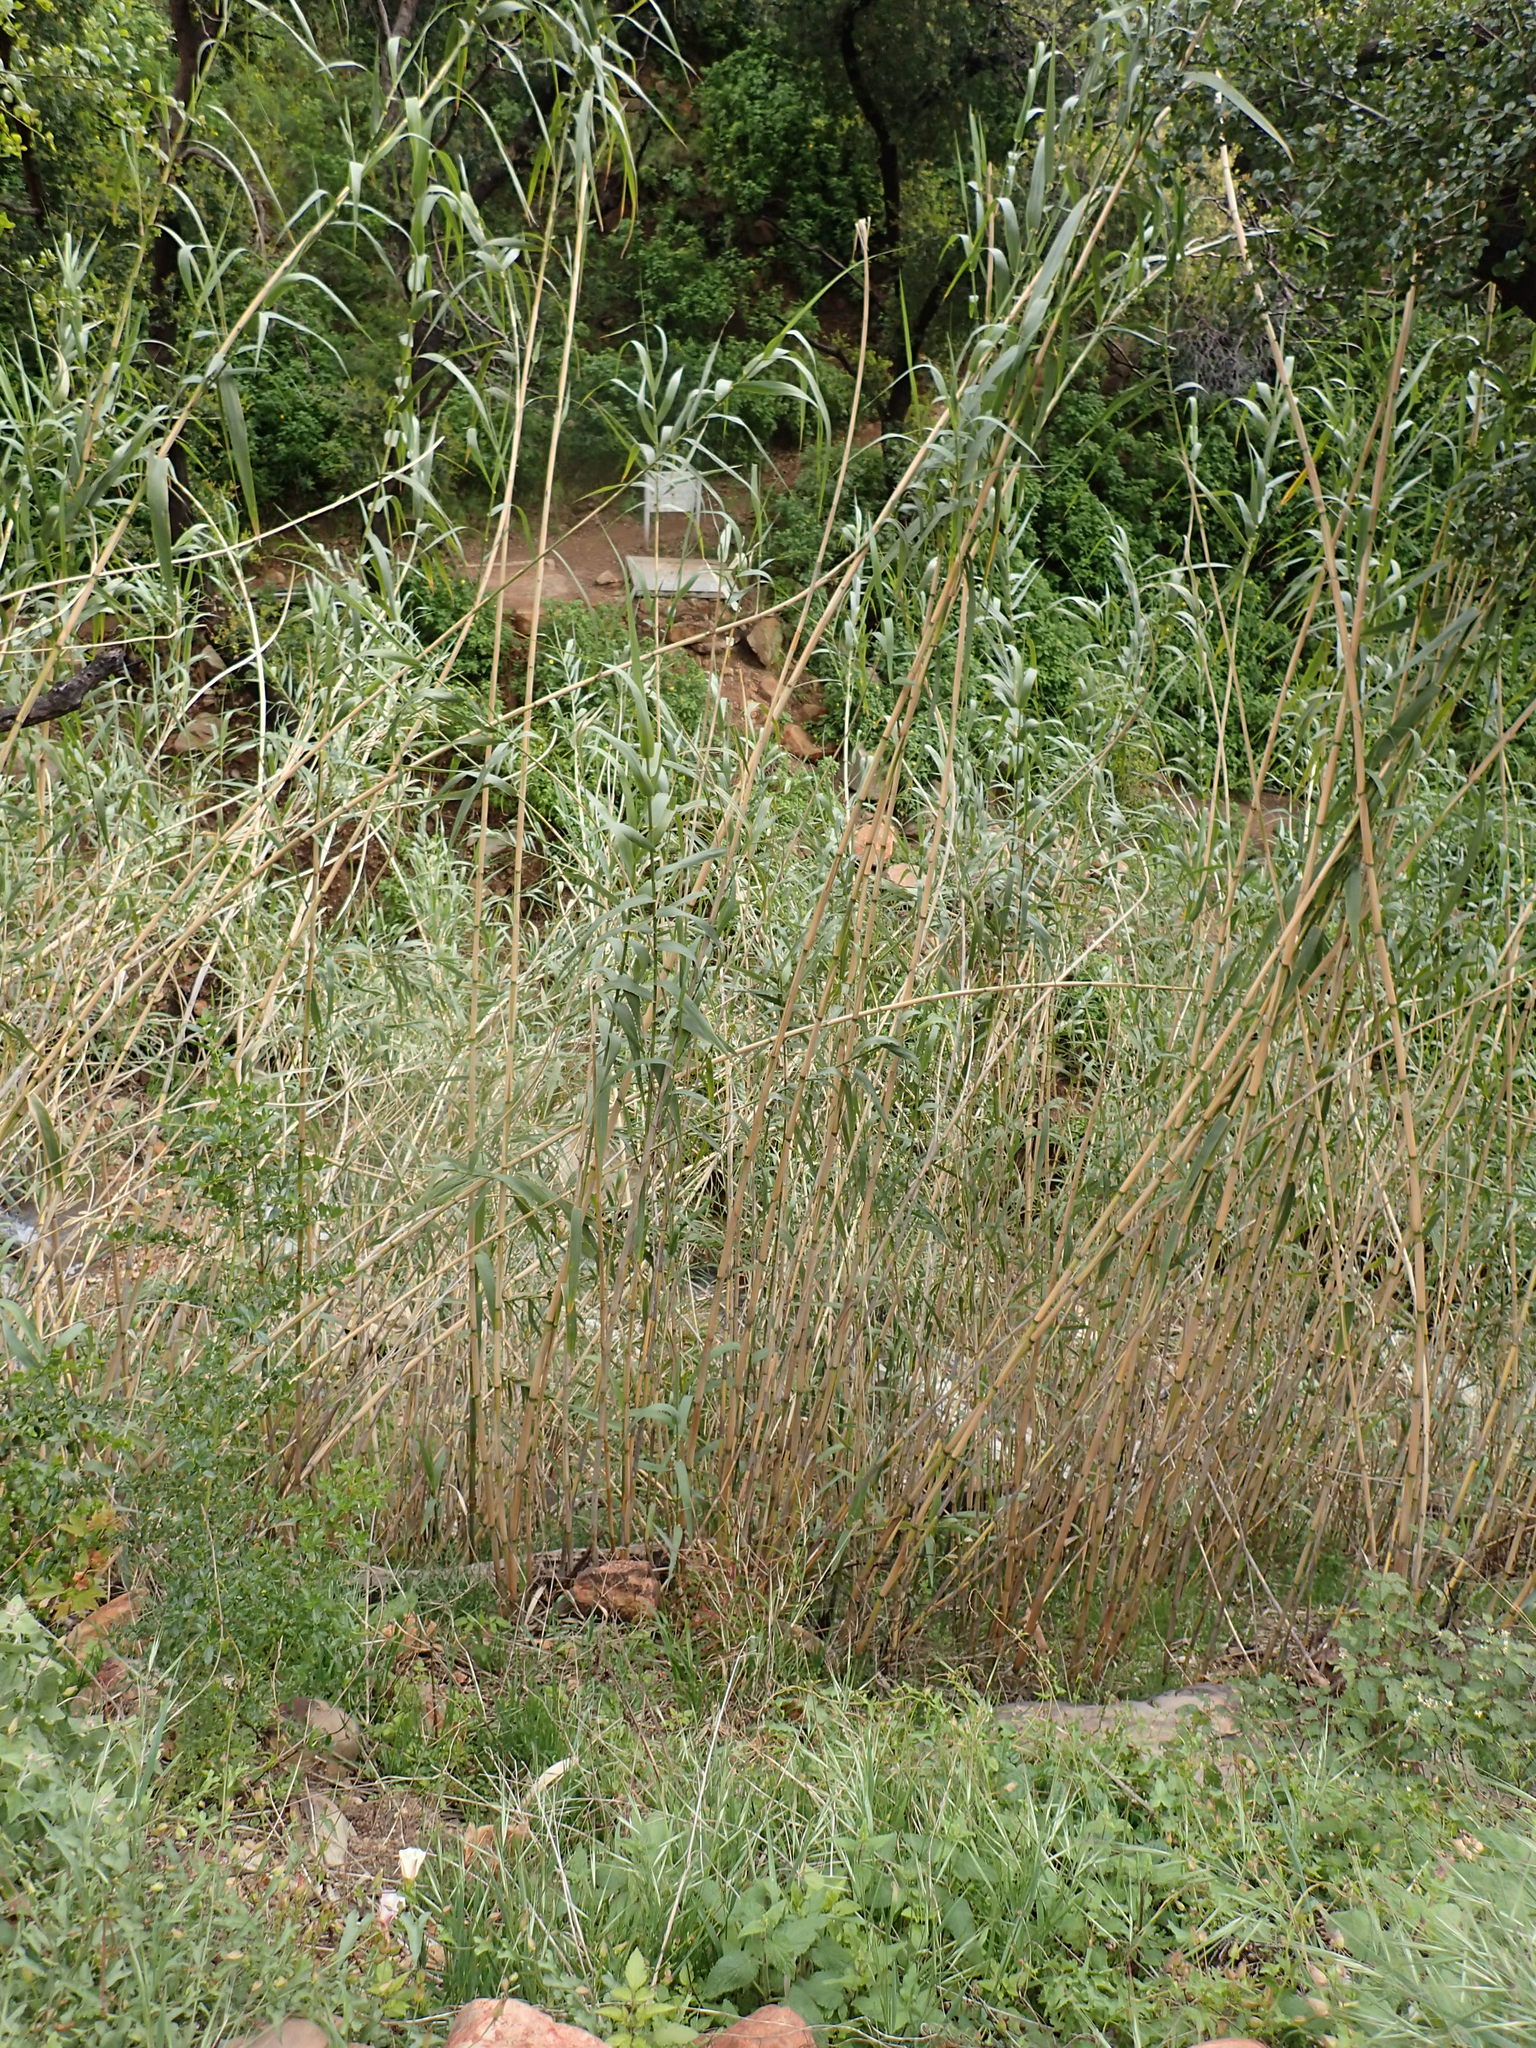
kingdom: Plantae
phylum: Tracheophyta
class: Liliopsida
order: Poales
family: Poaceae
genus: Arundo
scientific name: Arundo donax
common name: Giant reed
